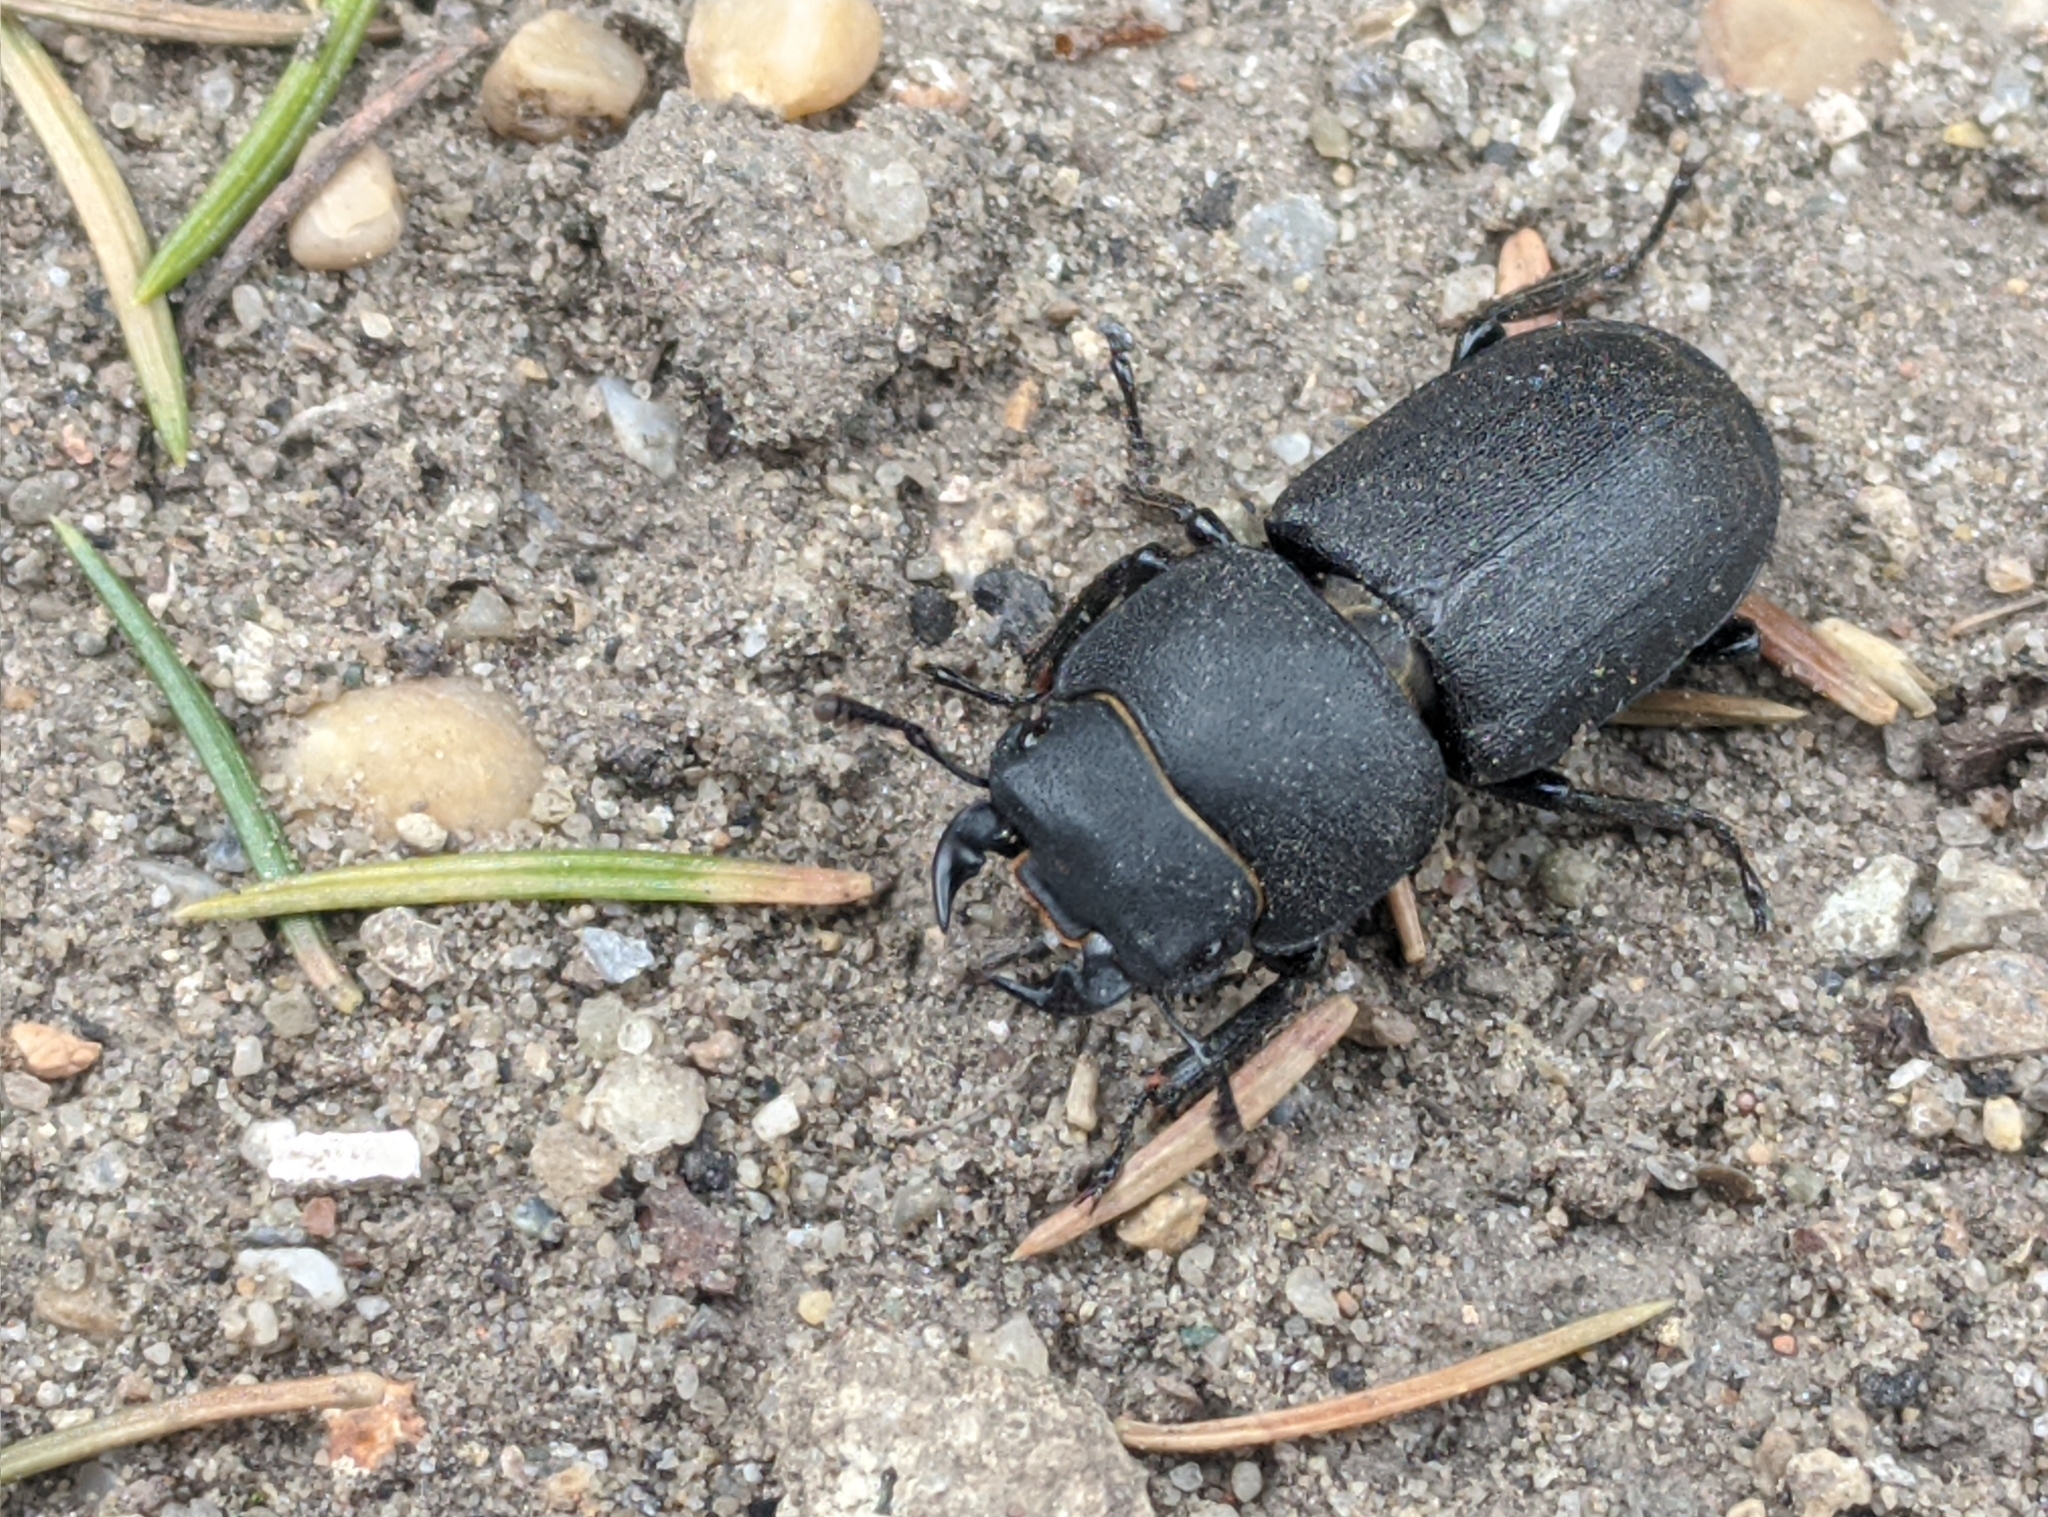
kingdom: Animalia
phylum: Arthropoda
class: Insecta
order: Coleoptera
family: Lucanidae
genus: Dorcus
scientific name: Dorcus parallelipipedus
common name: Lesser stag beetle
